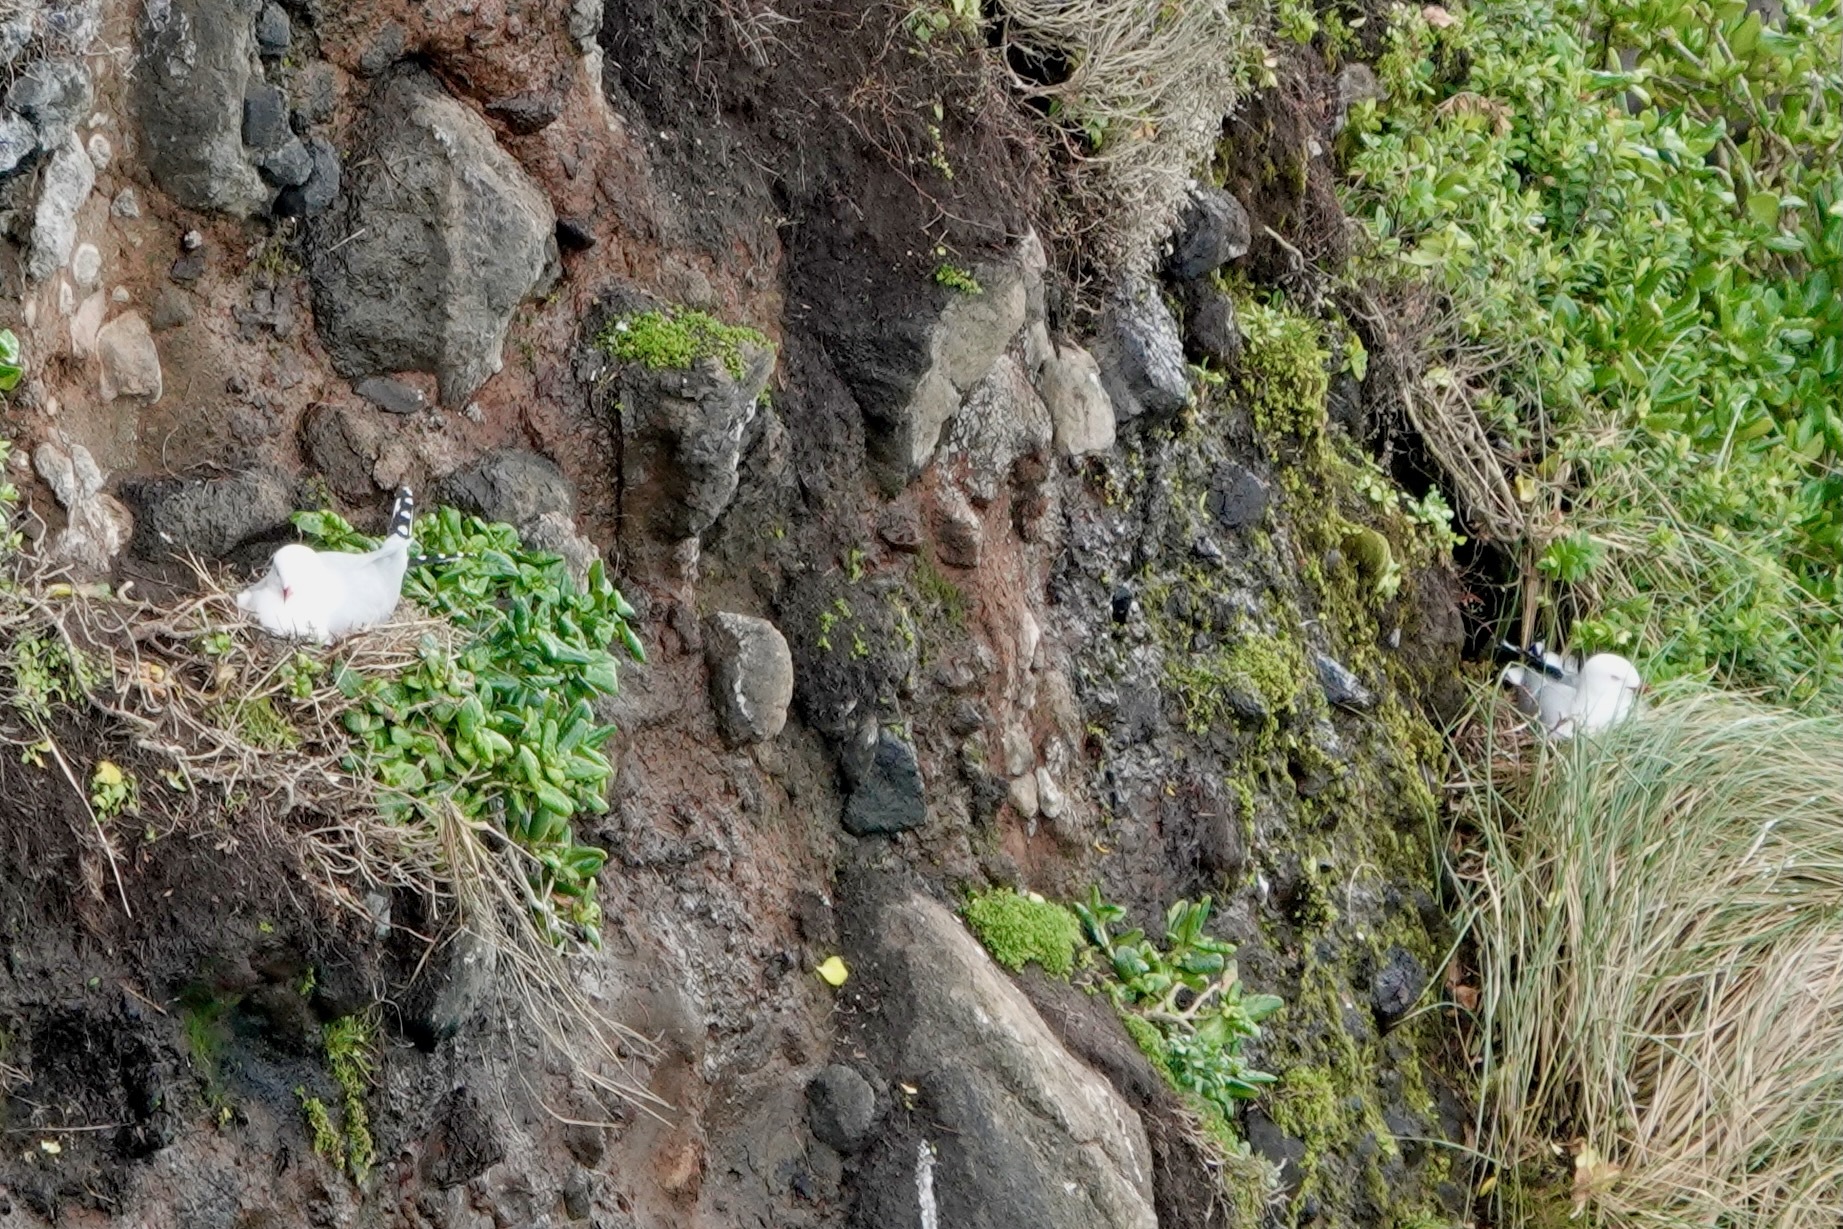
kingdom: Animalia
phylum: Chordata
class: Aves
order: Charadriiformes
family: Laridae
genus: Chroicocephalus
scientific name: Chroicocephalus novaehollandiae
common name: Silver gull
